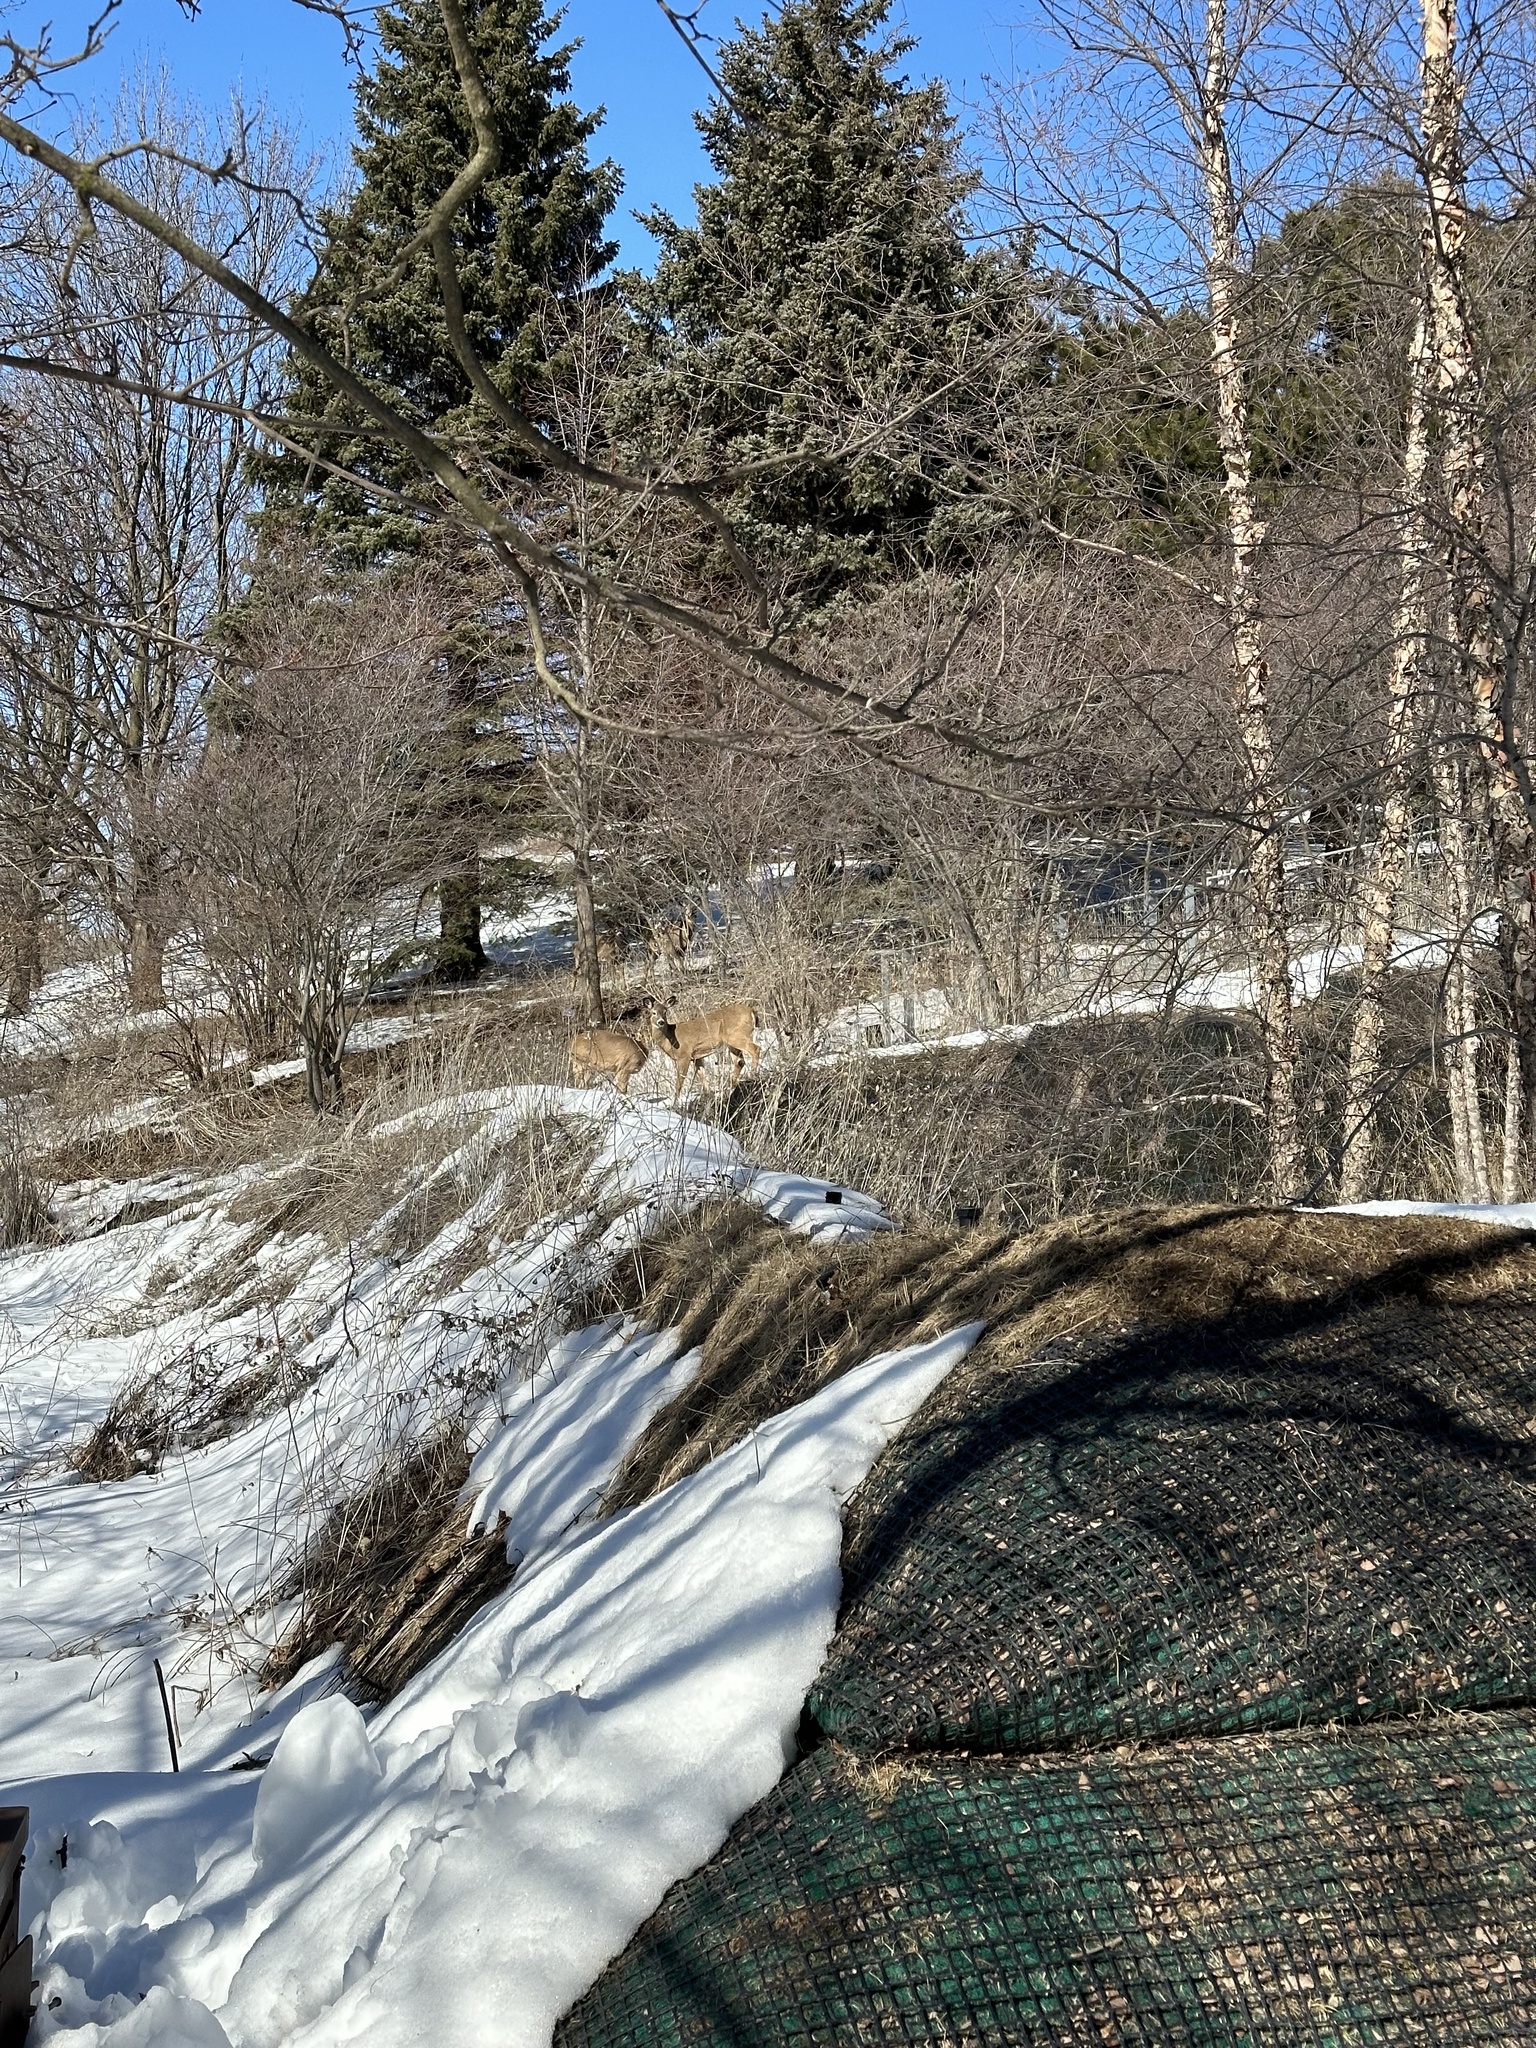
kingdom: Animalia
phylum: Chordata
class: Mammalia
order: Artiodactyla
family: Cervidae
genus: Odocoileus
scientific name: Odocoileus virginianus
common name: White-tailed deer
